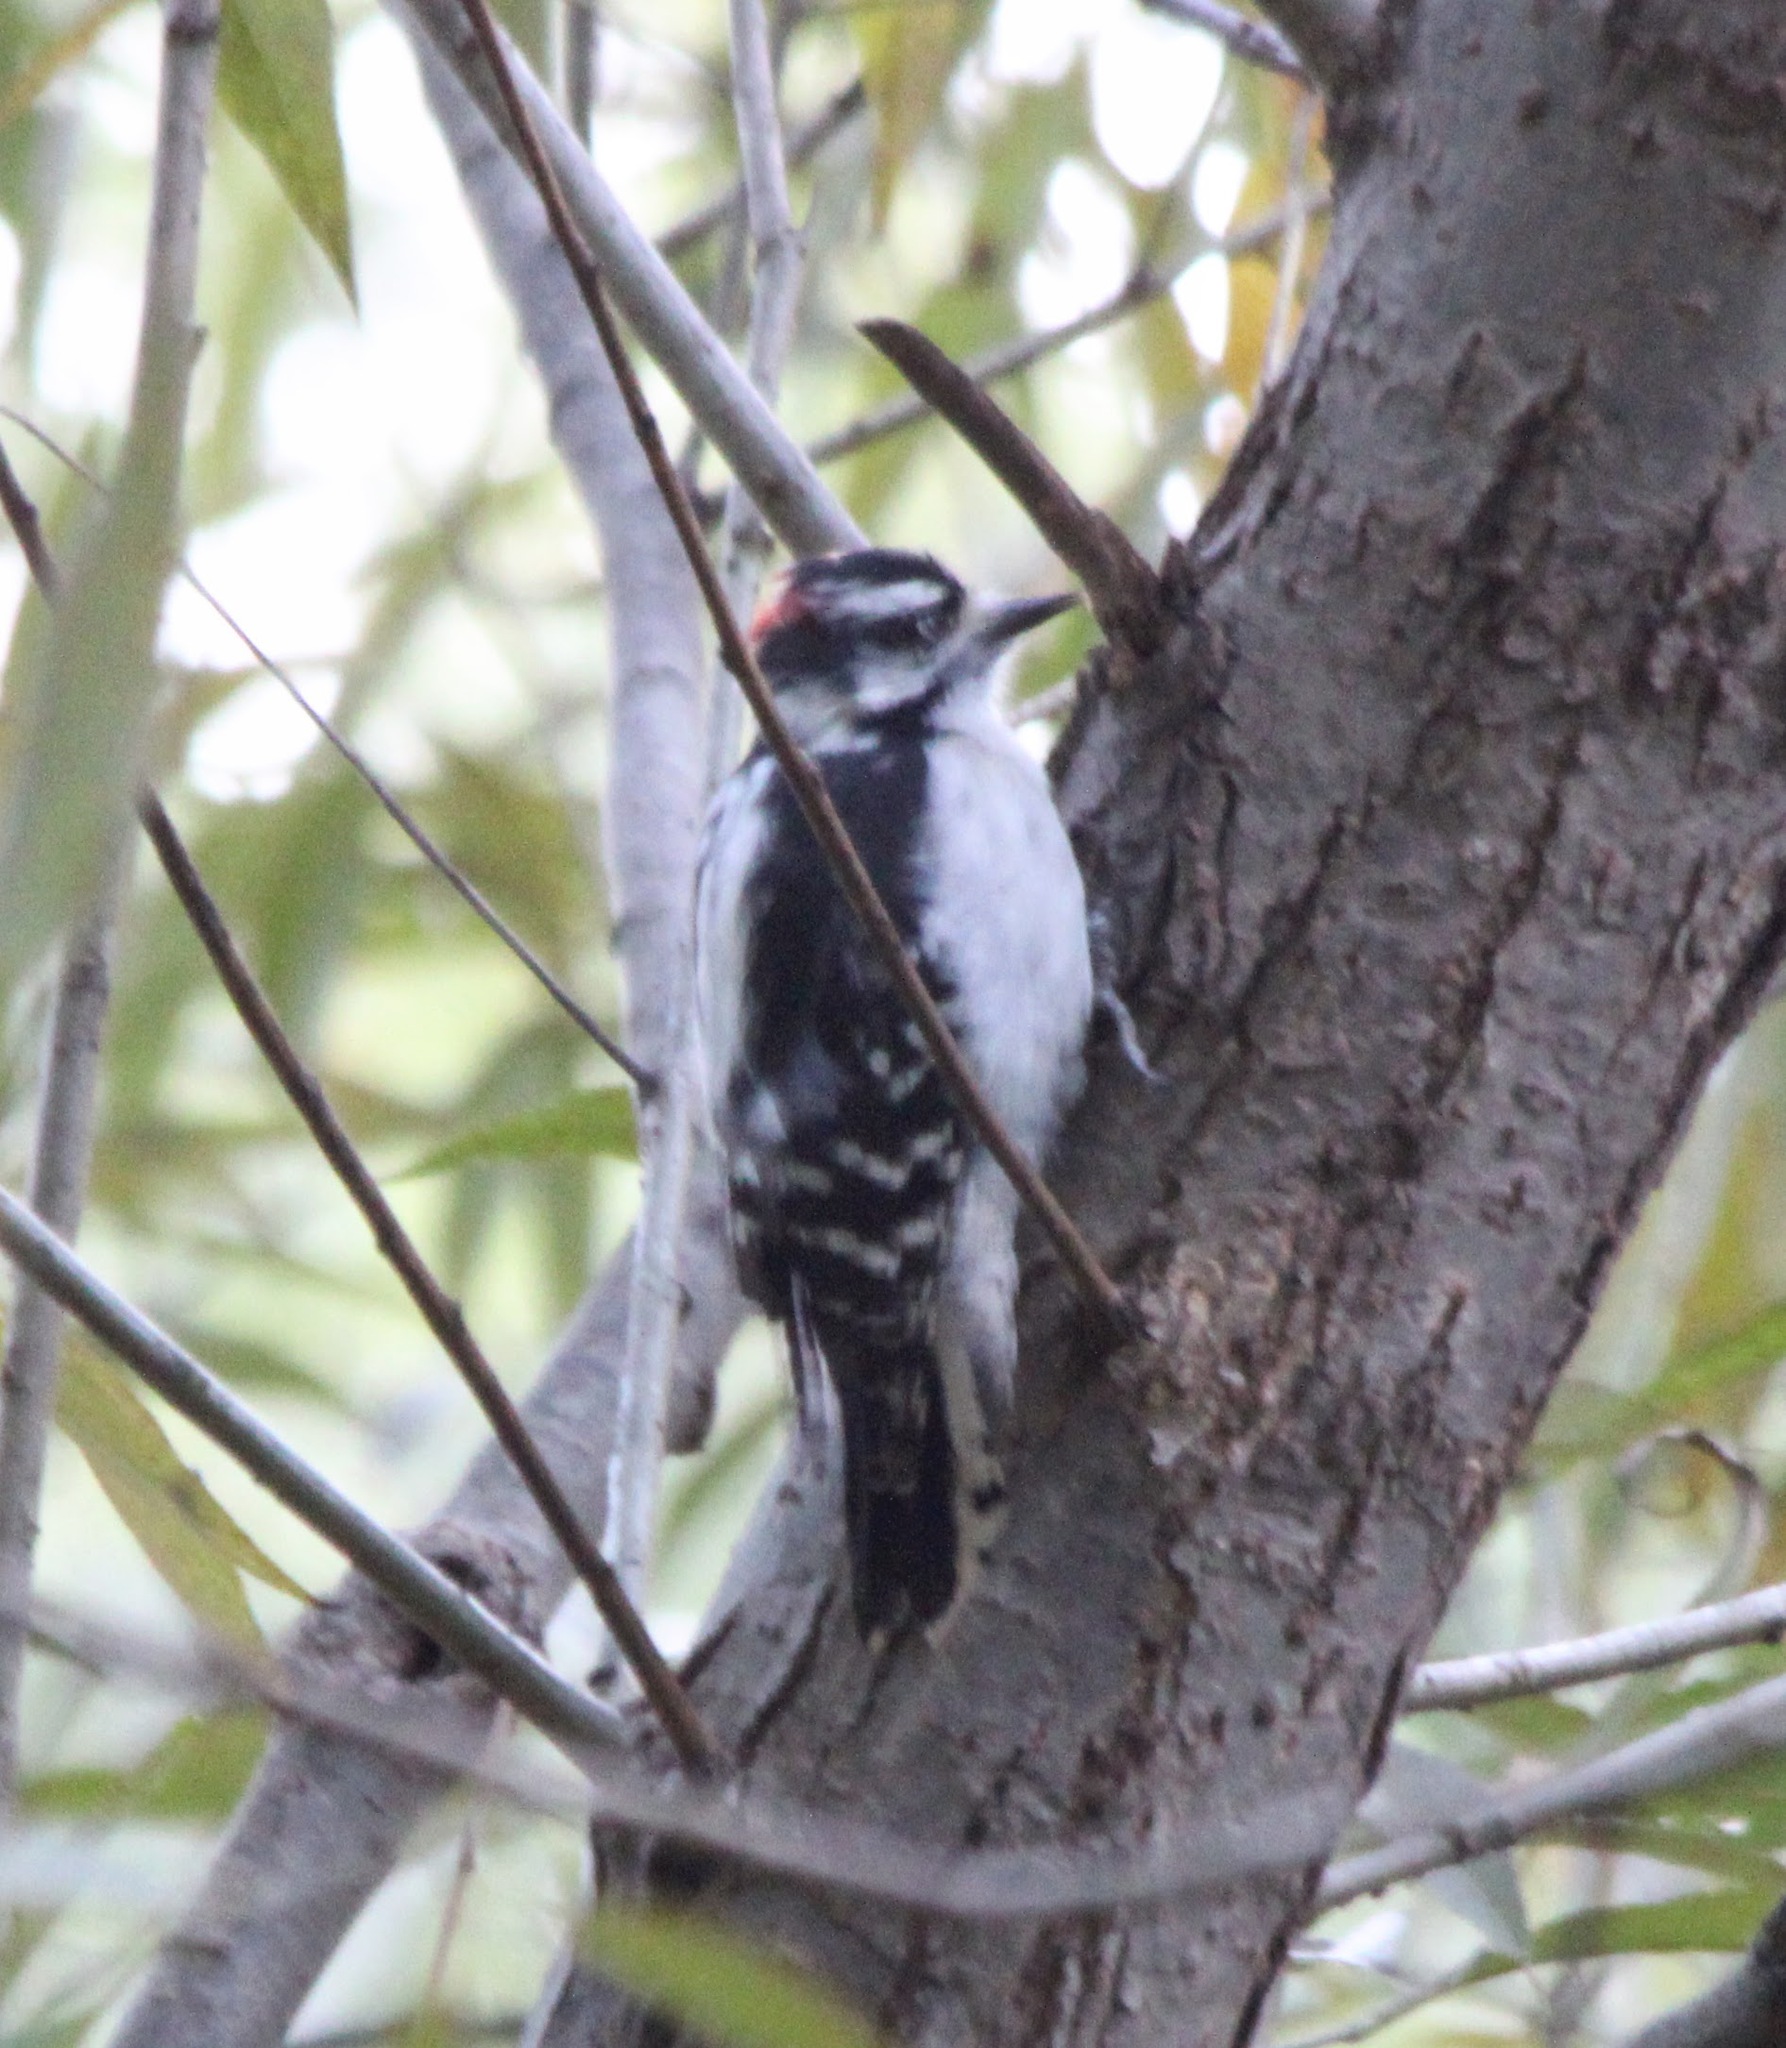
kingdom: Animalia
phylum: Chordata
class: Aves
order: Piciformes
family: Picidae
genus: Dryobates
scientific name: Dryobates pubescens
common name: Downy woodpecker
